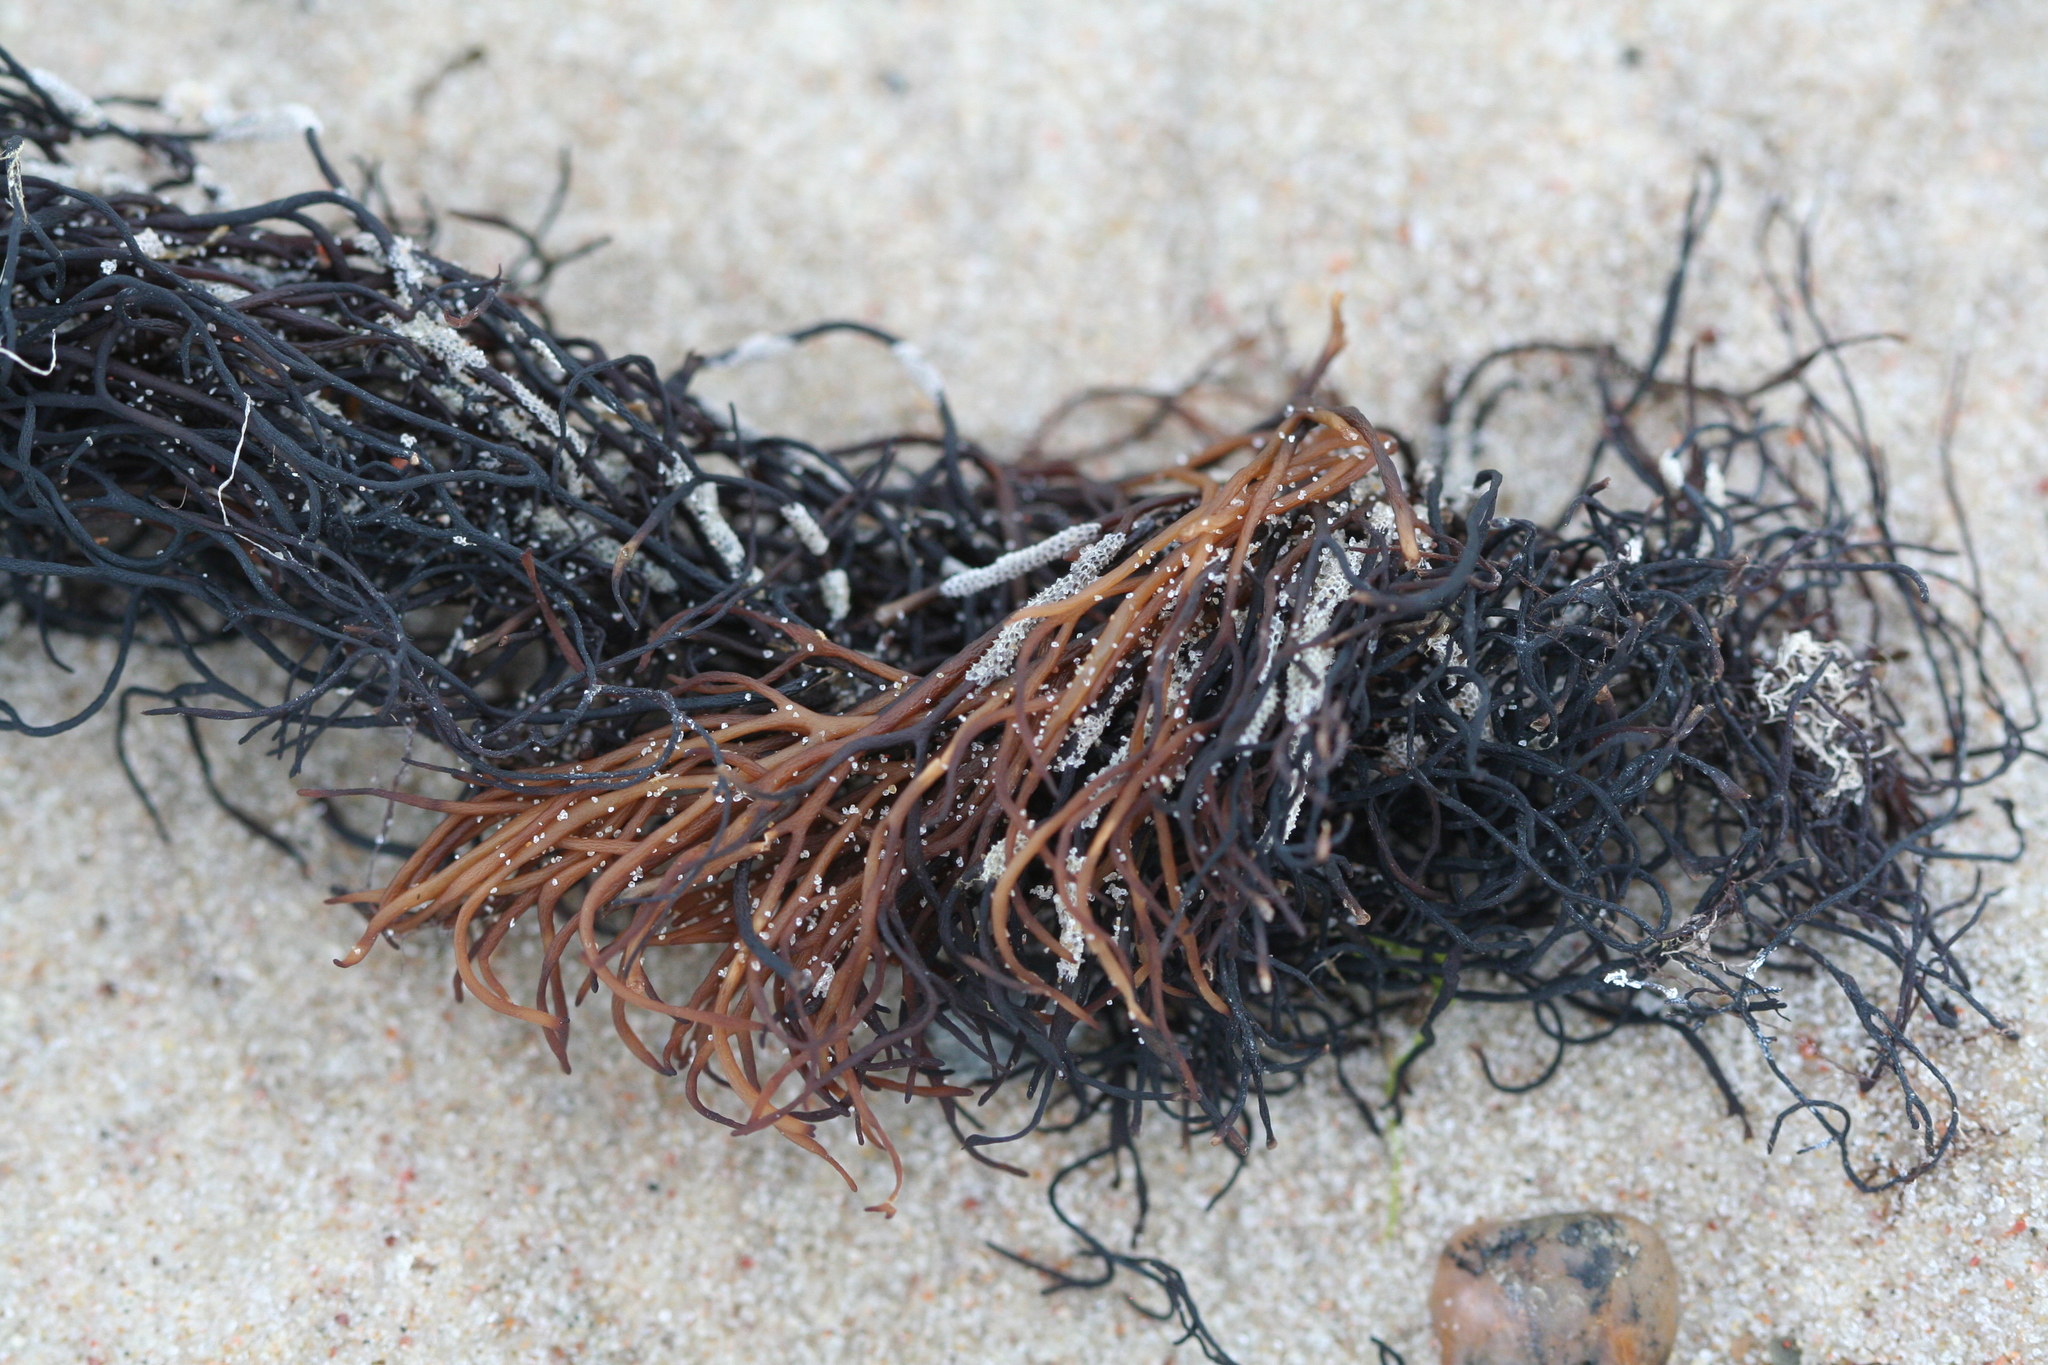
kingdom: Plantae
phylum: Rhodophyta
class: Florideophyceae
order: Gigartinales
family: Furcellariaceae
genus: Furcellaria
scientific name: Furcellaria lumbricalis
